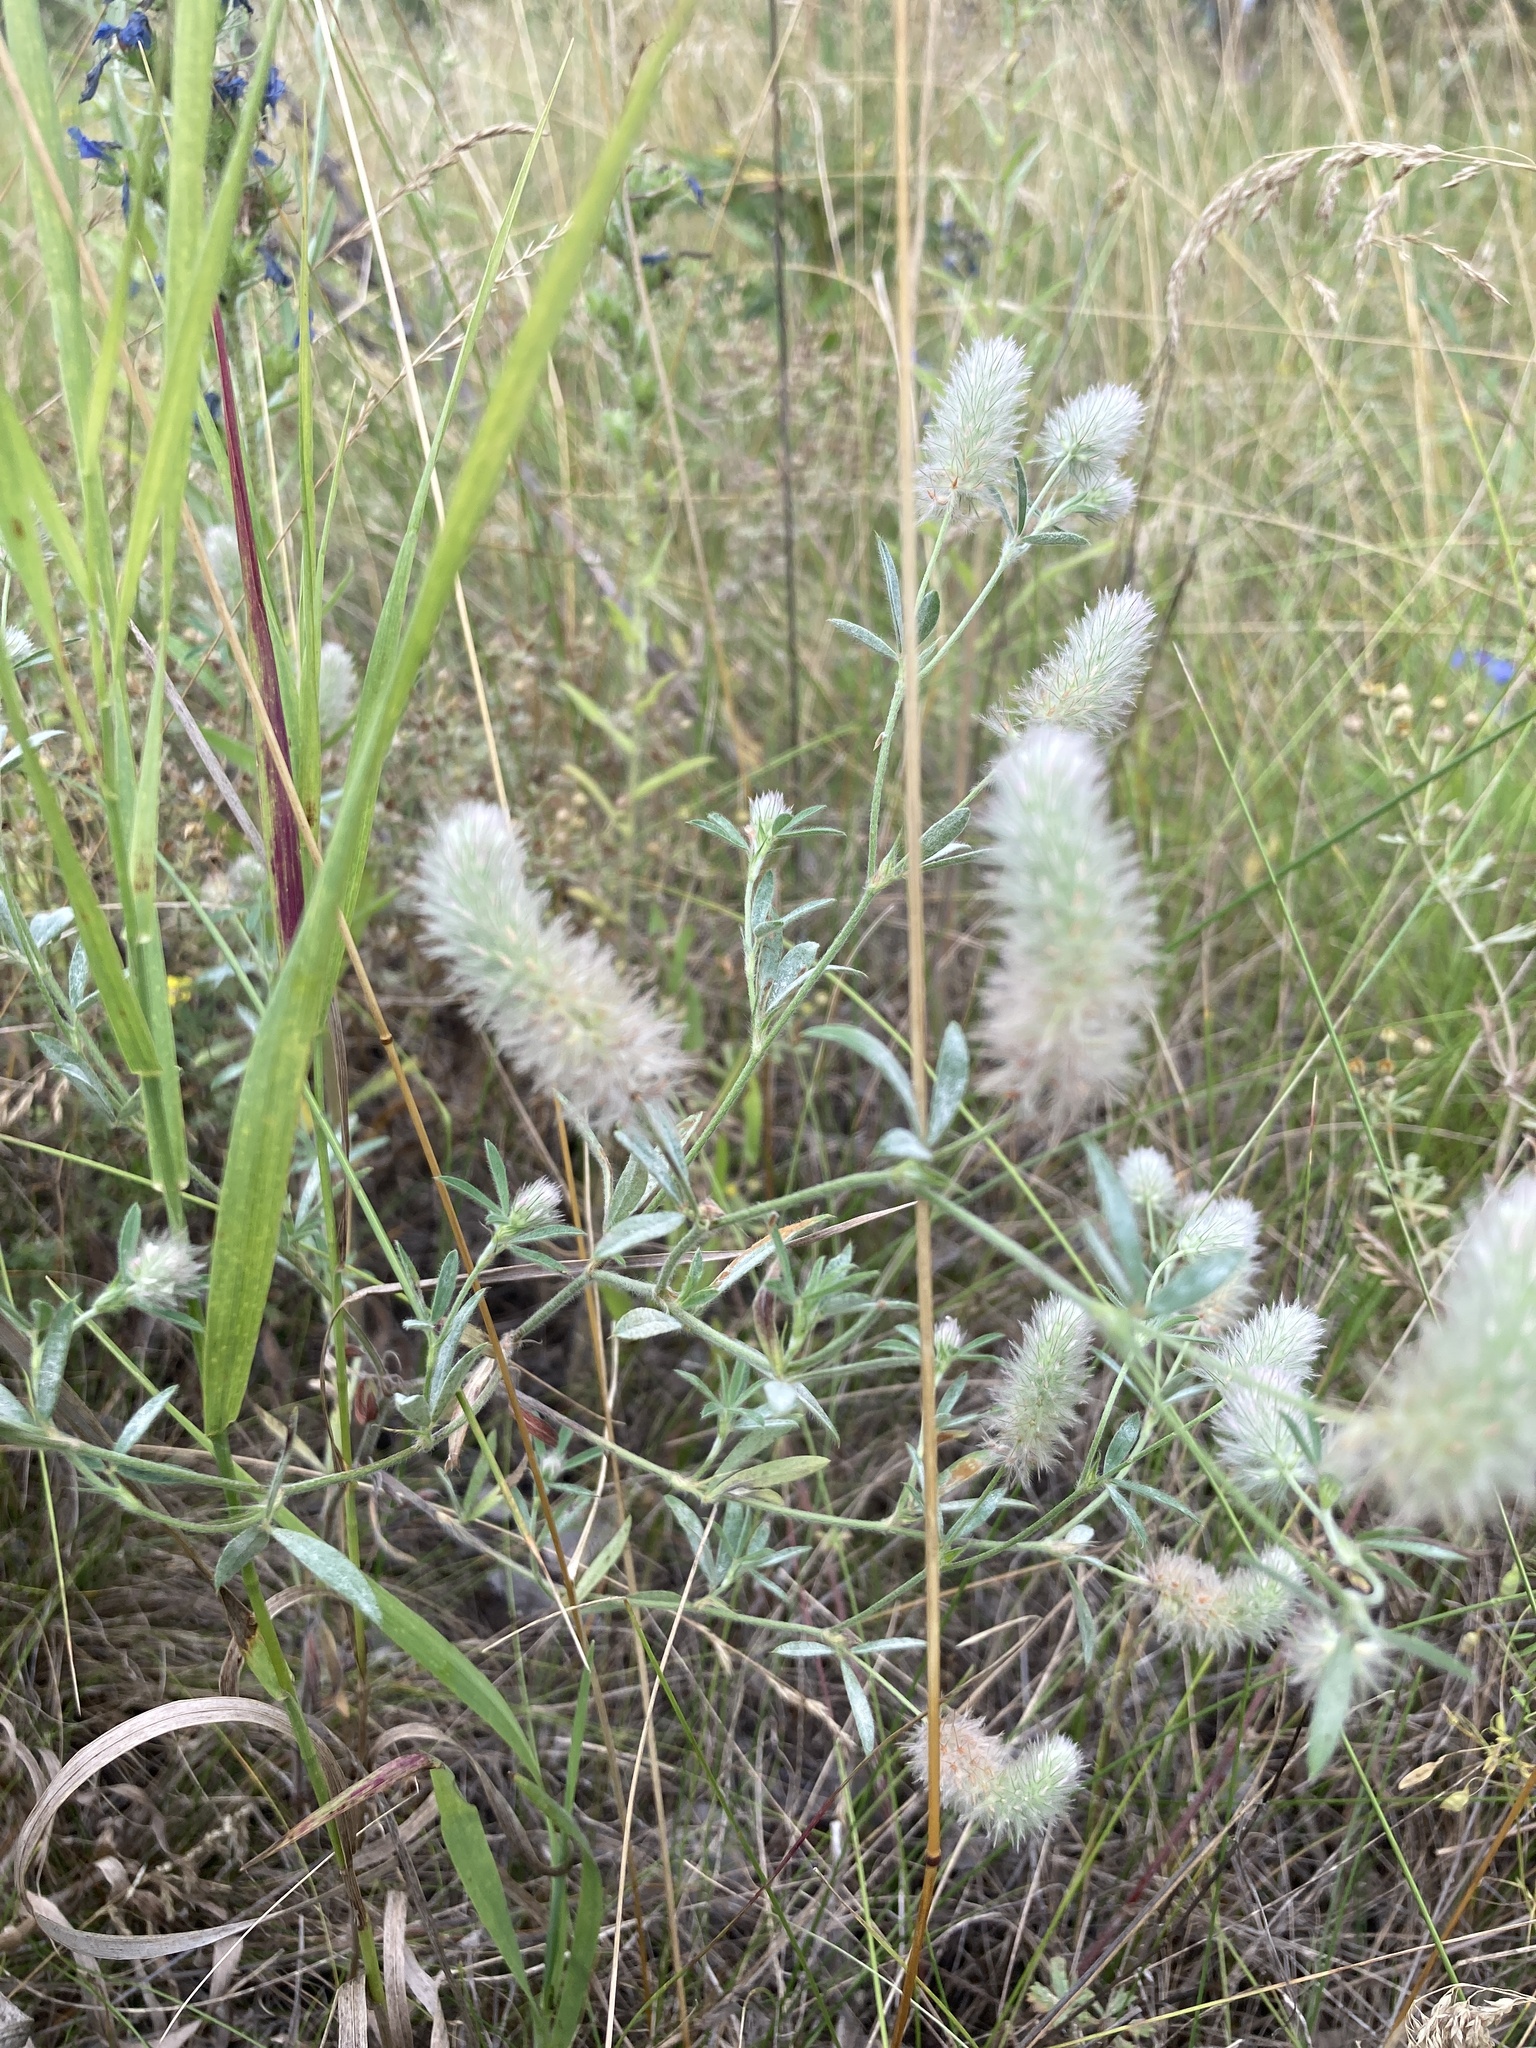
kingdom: Plantae
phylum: Tracheophyta
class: Magnoliopsida
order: Fabales
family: Fabaceae
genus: Trifolium
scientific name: Trifolium arvense
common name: Hare's-foot clover
